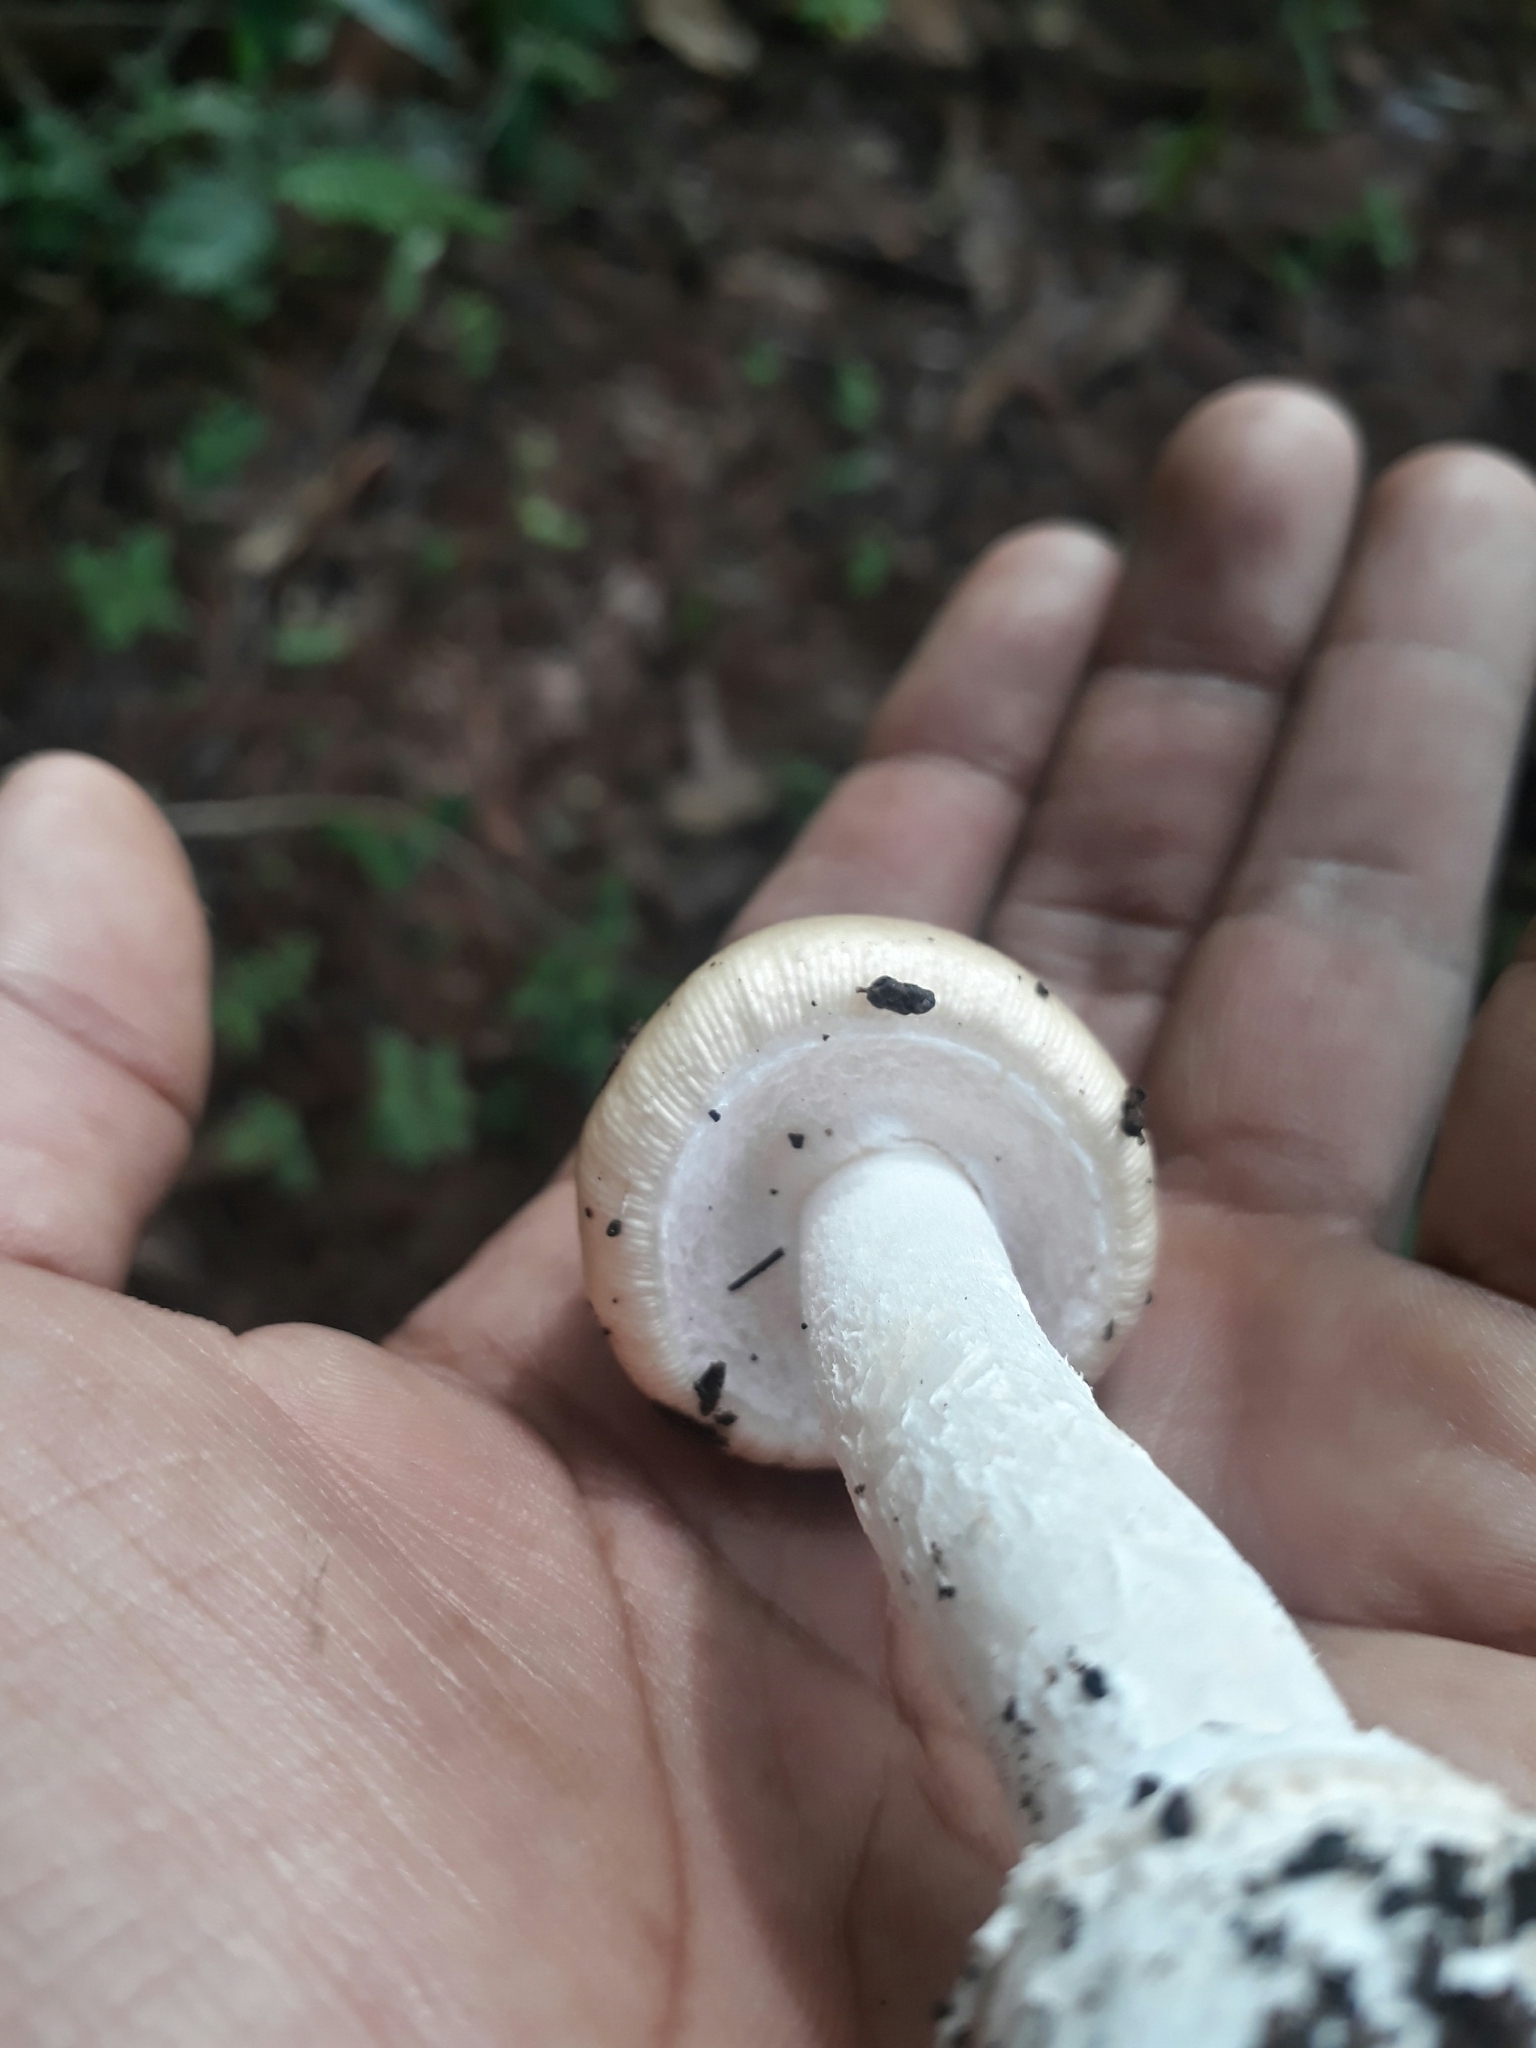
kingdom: Fungi
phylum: Basidiomycota
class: Agaricomycetes
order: Agaricales
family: Amanitaceae
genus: Amanita
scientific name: Amanita xylinivolva
